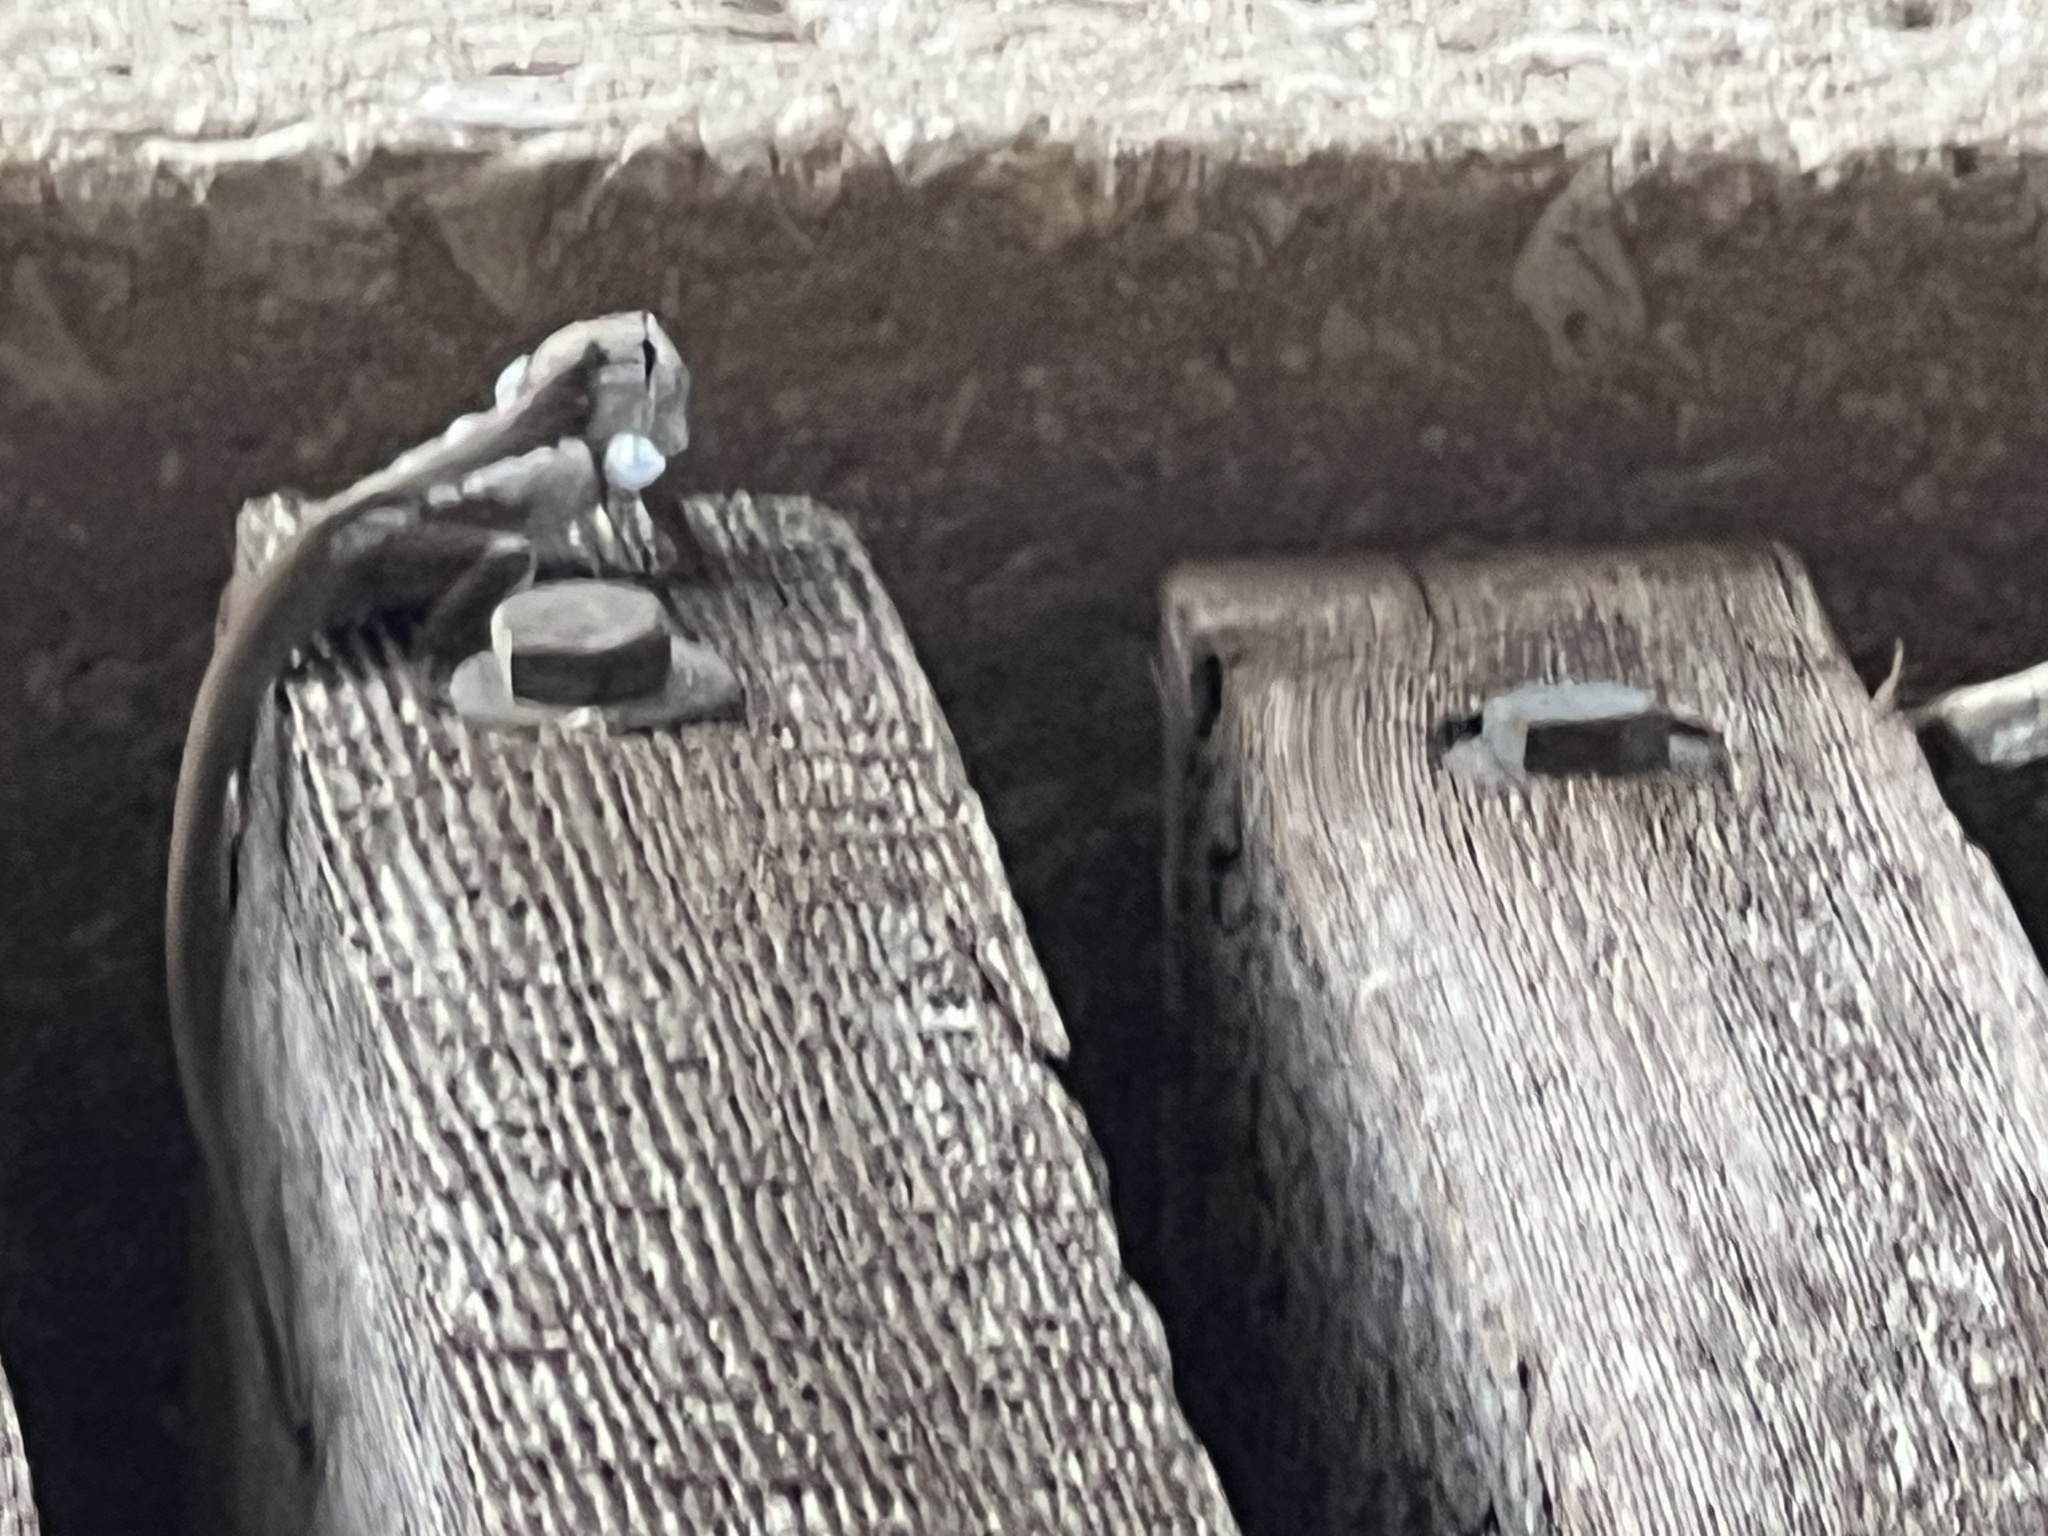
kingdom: Animalia
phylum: Chordata
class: Squamata
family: Dactyloidae
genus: Anolis
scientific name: Anolis carolinensis
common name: Green anole
